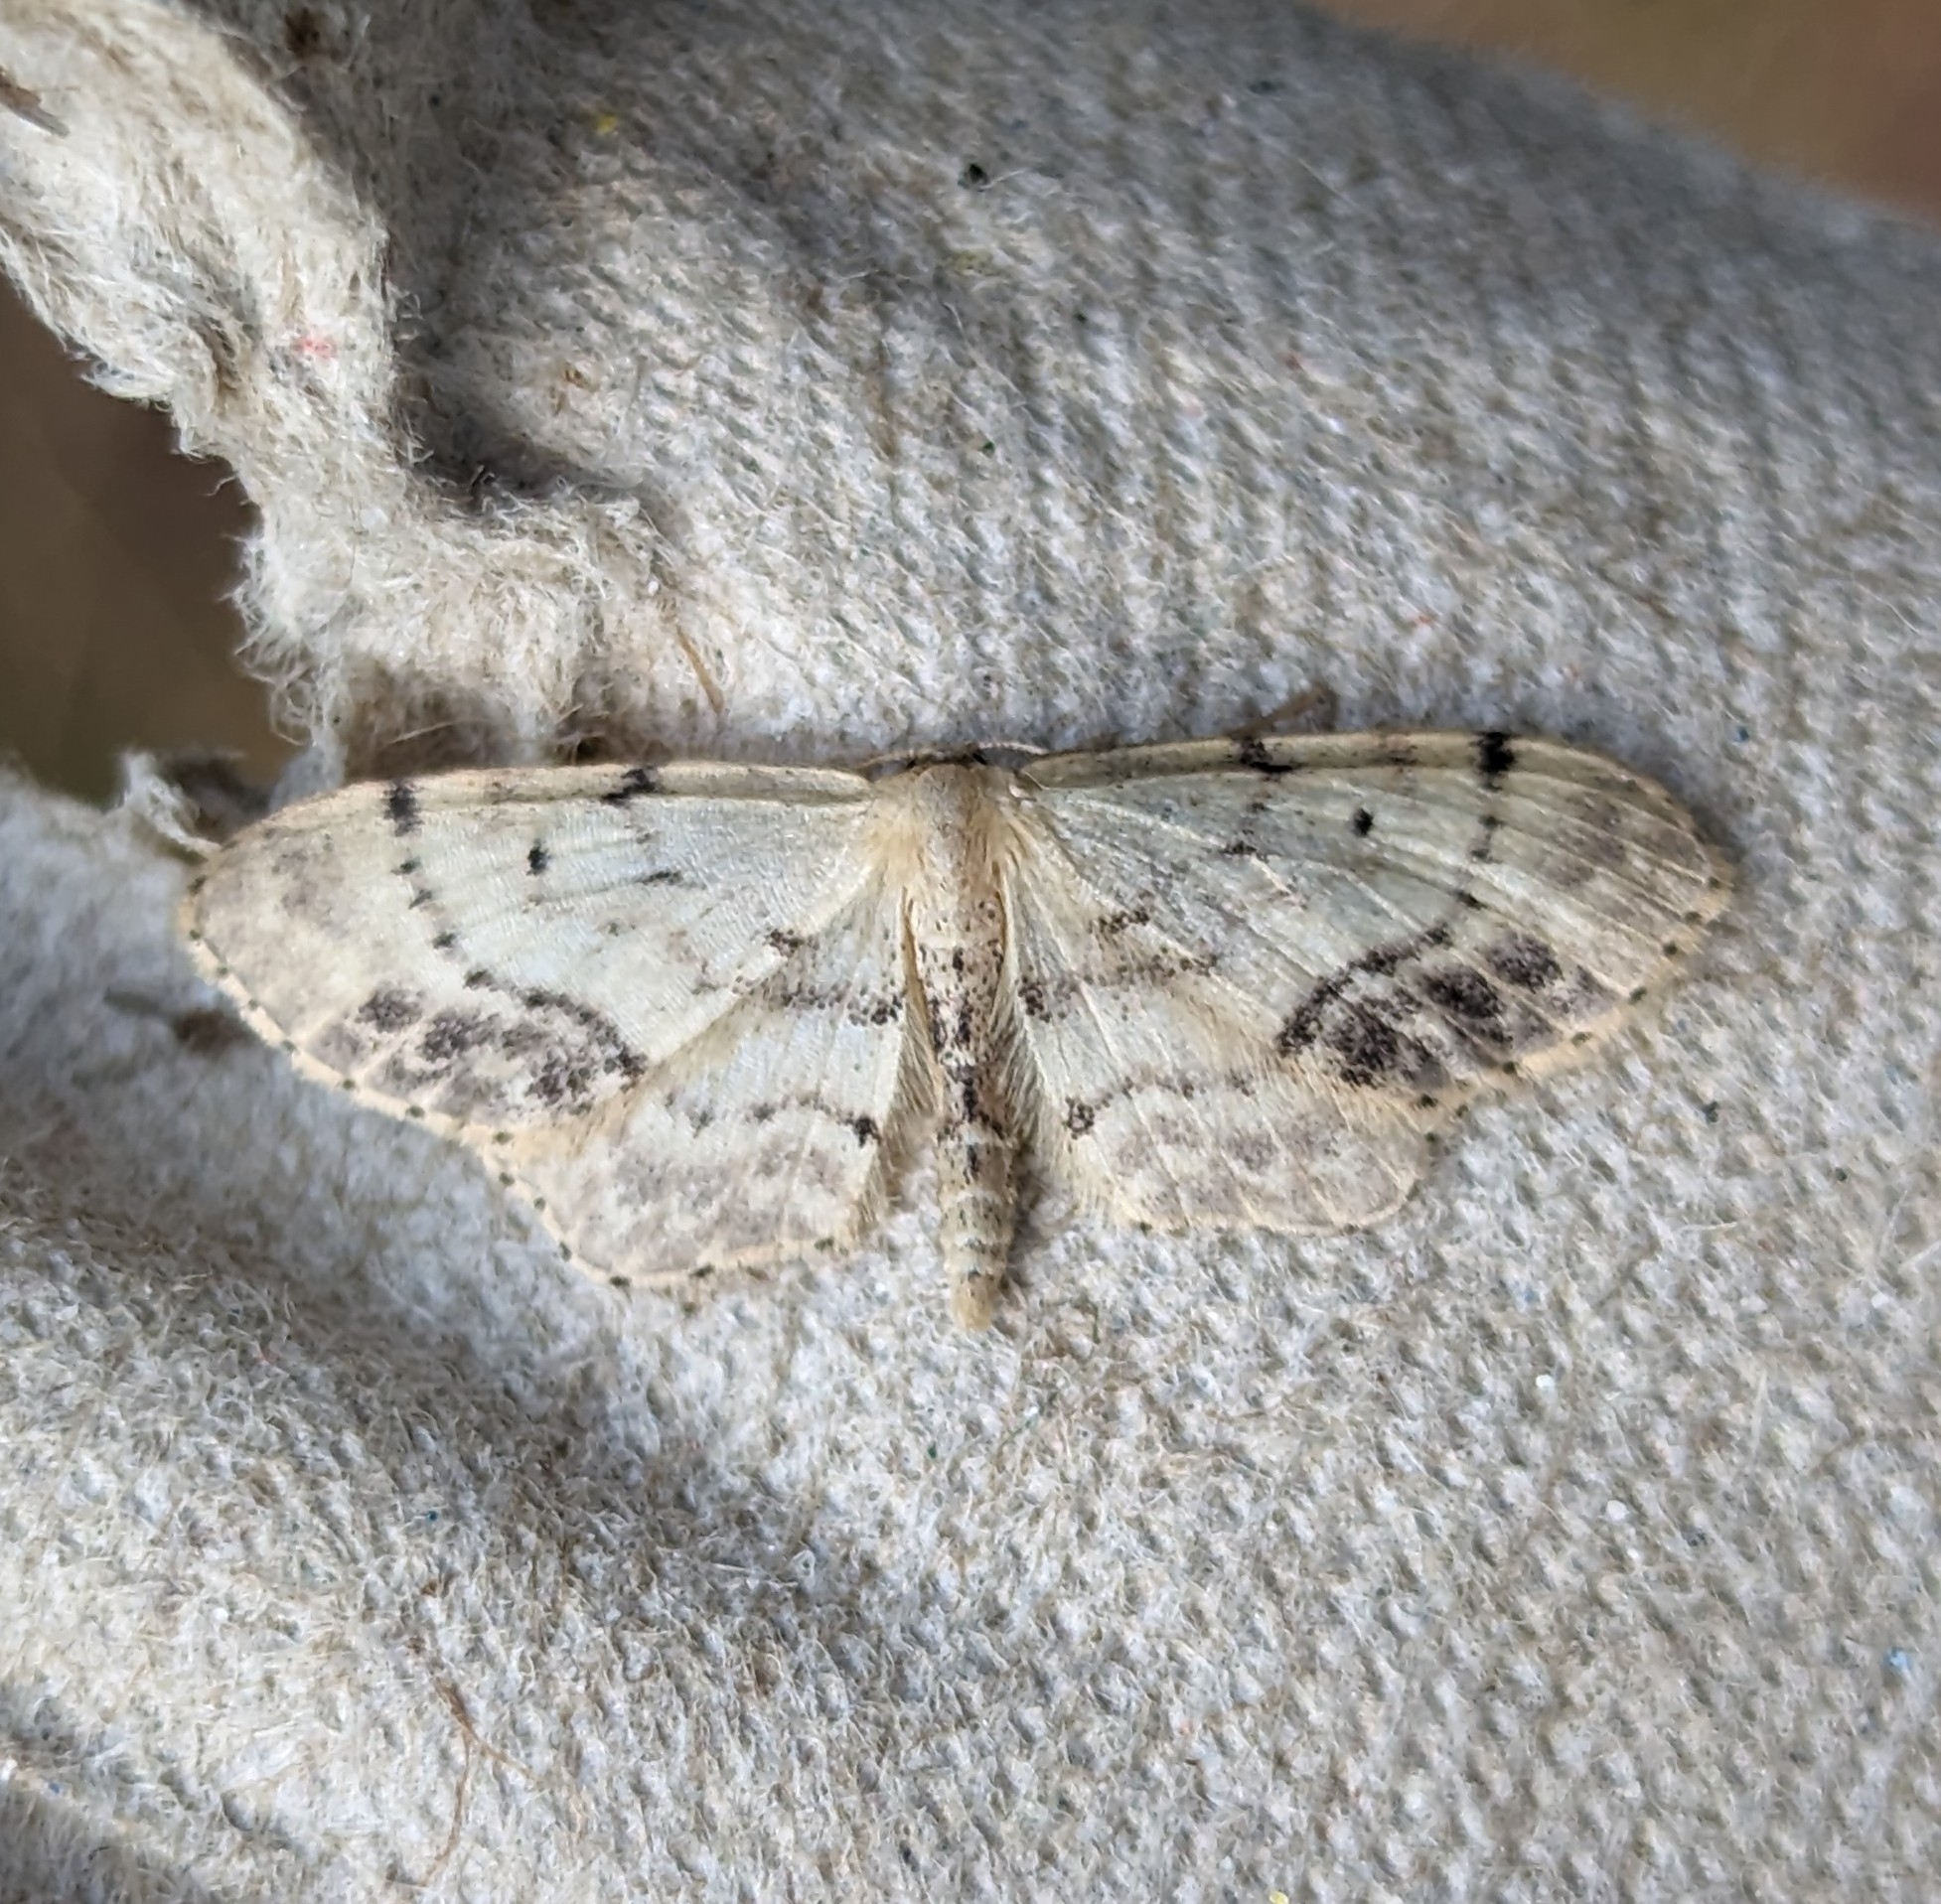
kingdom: Animalia
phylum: Arthropoda
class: Insecta
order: Lepidoptera
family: Geometridae
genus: Idaea
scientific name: Idaea dimidiata
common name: Single-dotted wave
